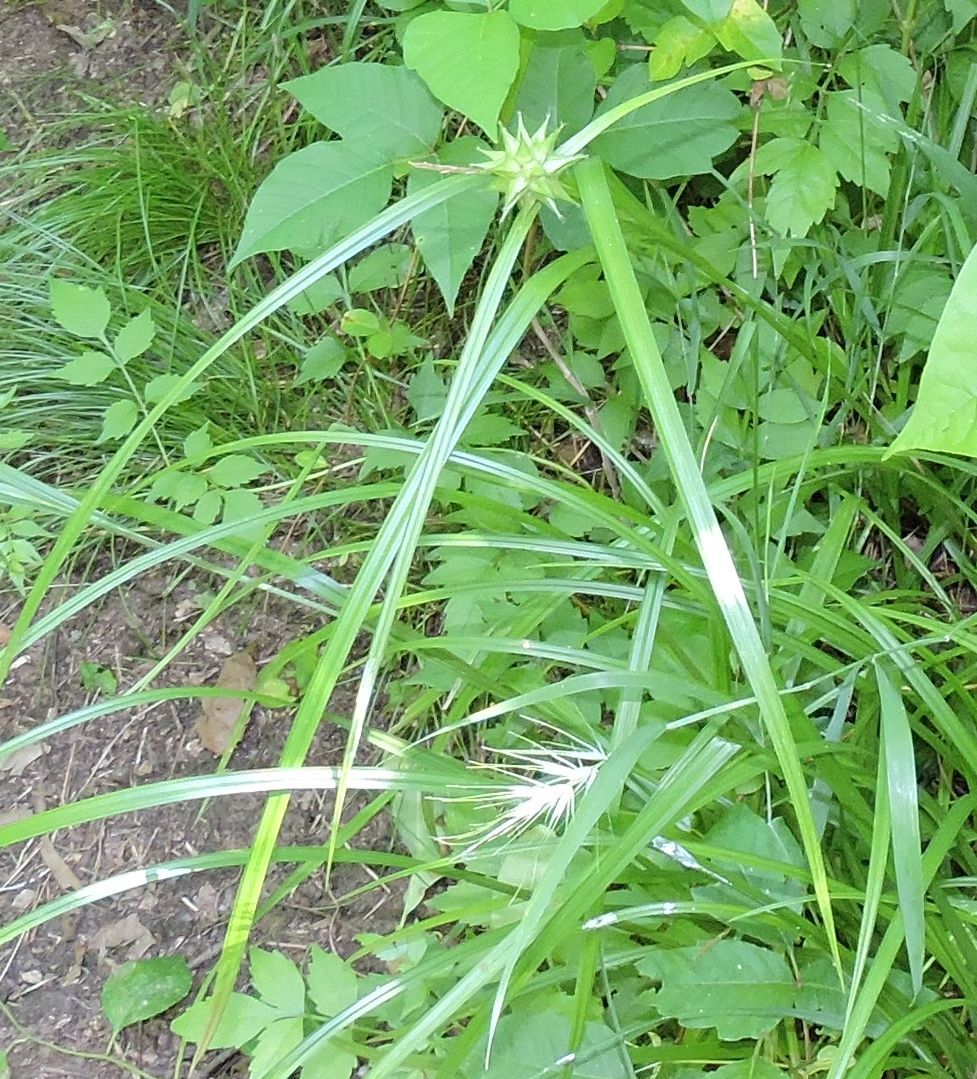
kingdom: Plantae
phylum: Tracheophyta
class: Liliopsida
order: Poales
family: Cyperaceae
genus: Carex
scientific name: Carex grayi
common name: Asa gray's sedge
